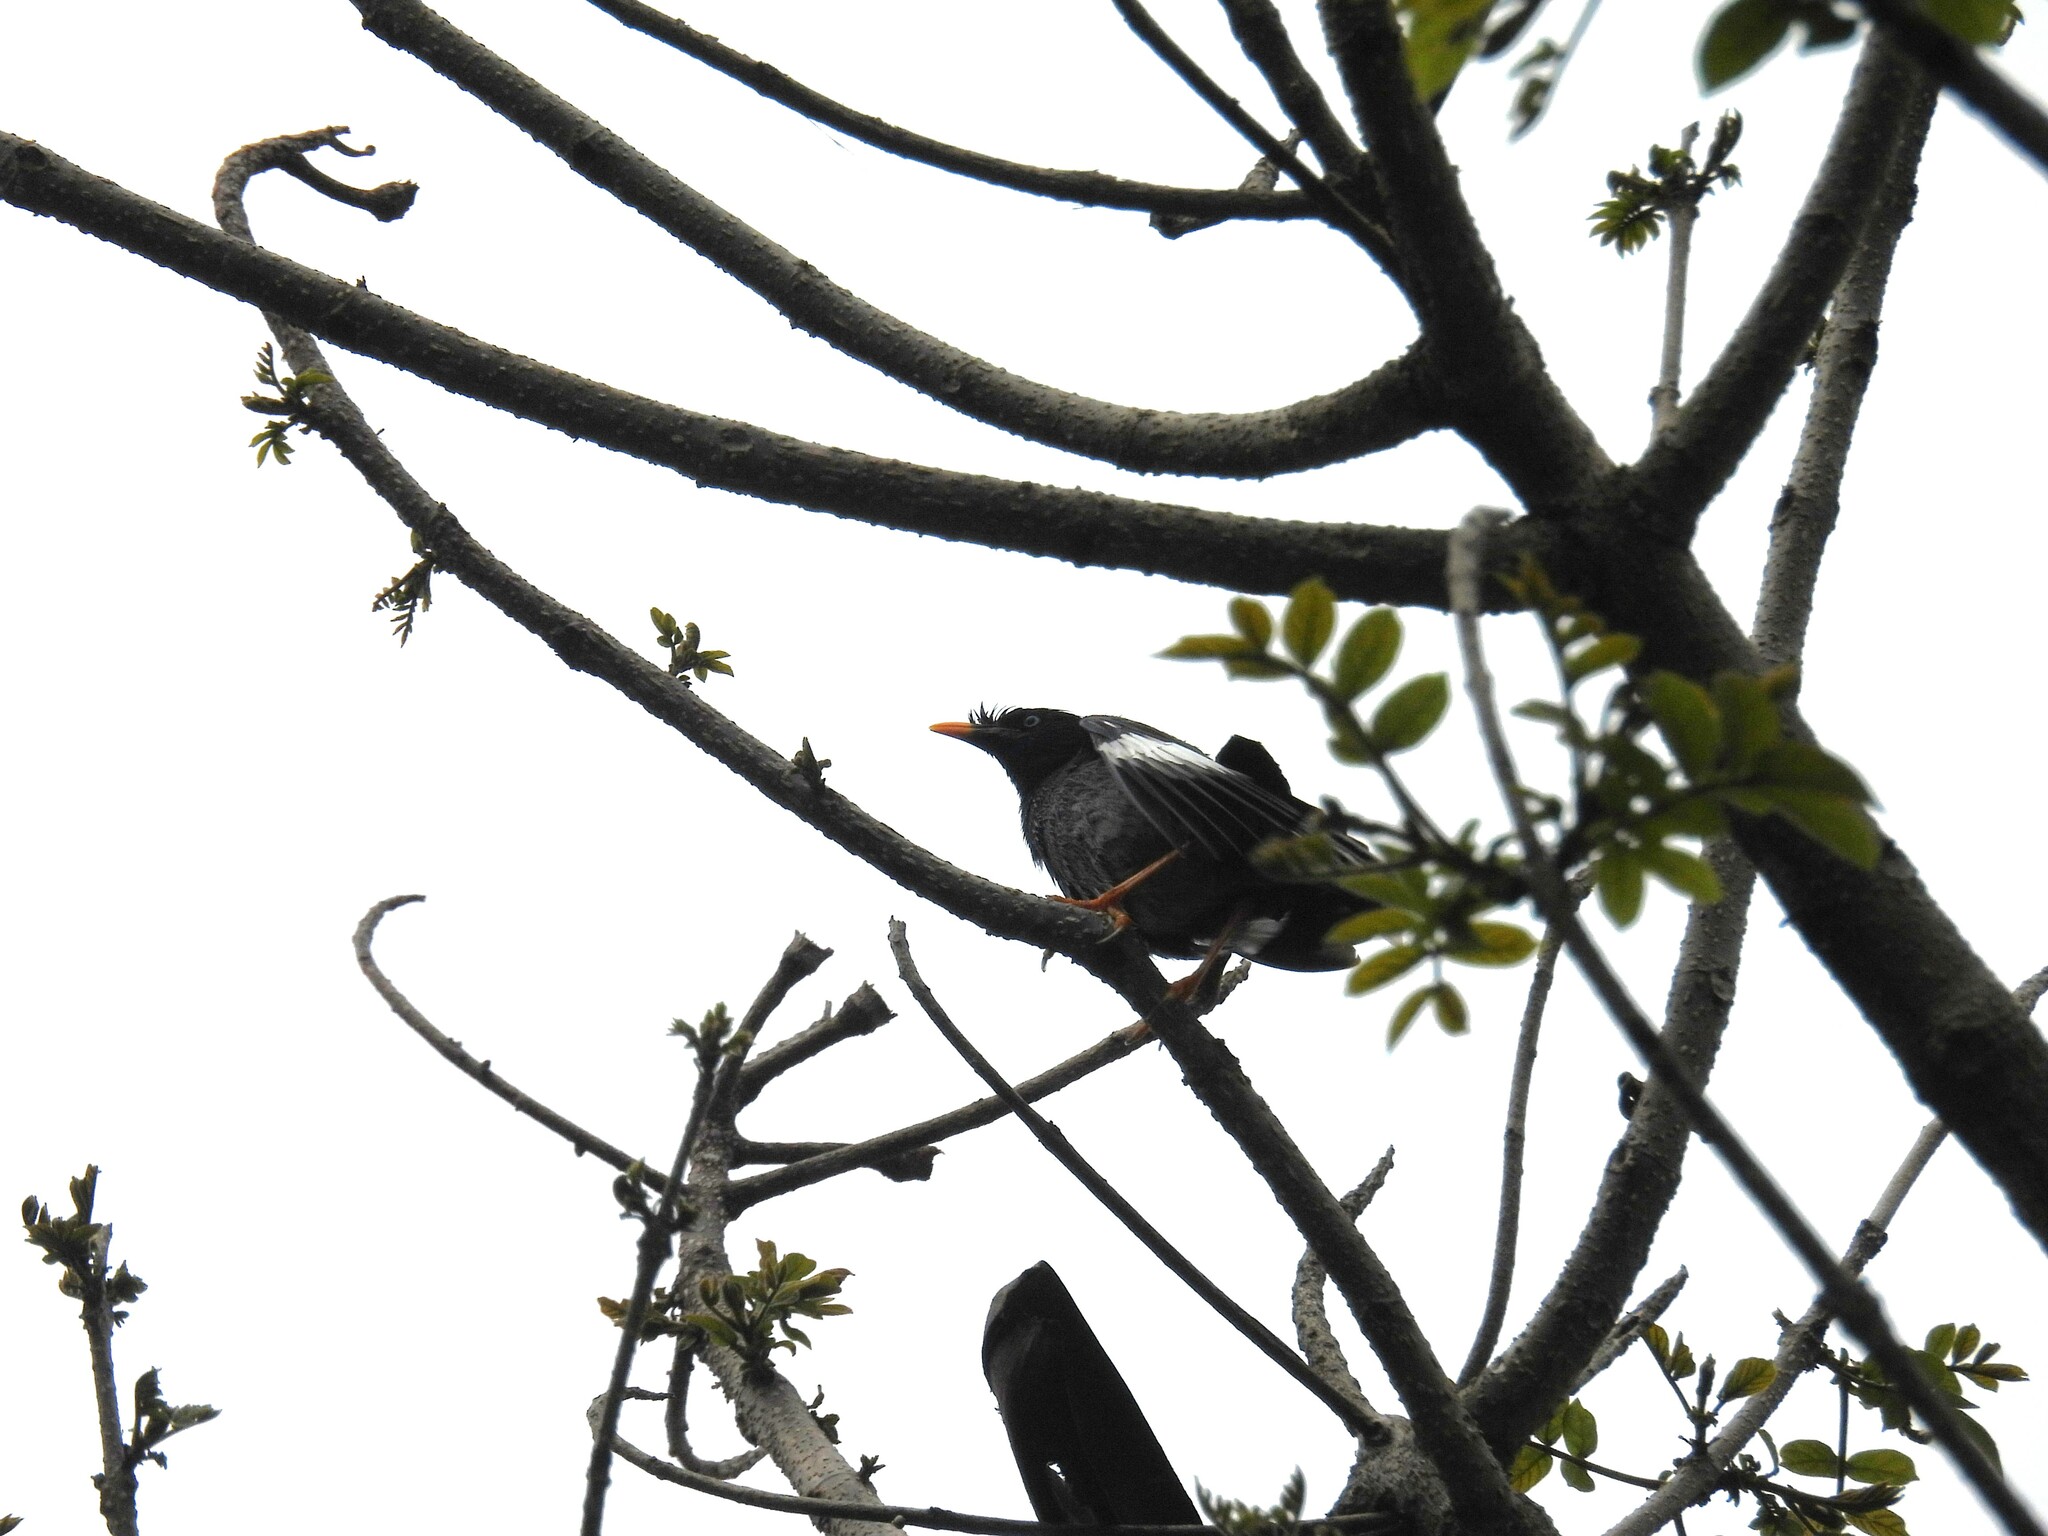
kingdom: Animalia
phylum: Chordata
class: Aves
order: Passeriformes
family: Sturnidae
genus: Acridotheres
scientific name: Acridotheres fuscus
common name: Jungle myna
